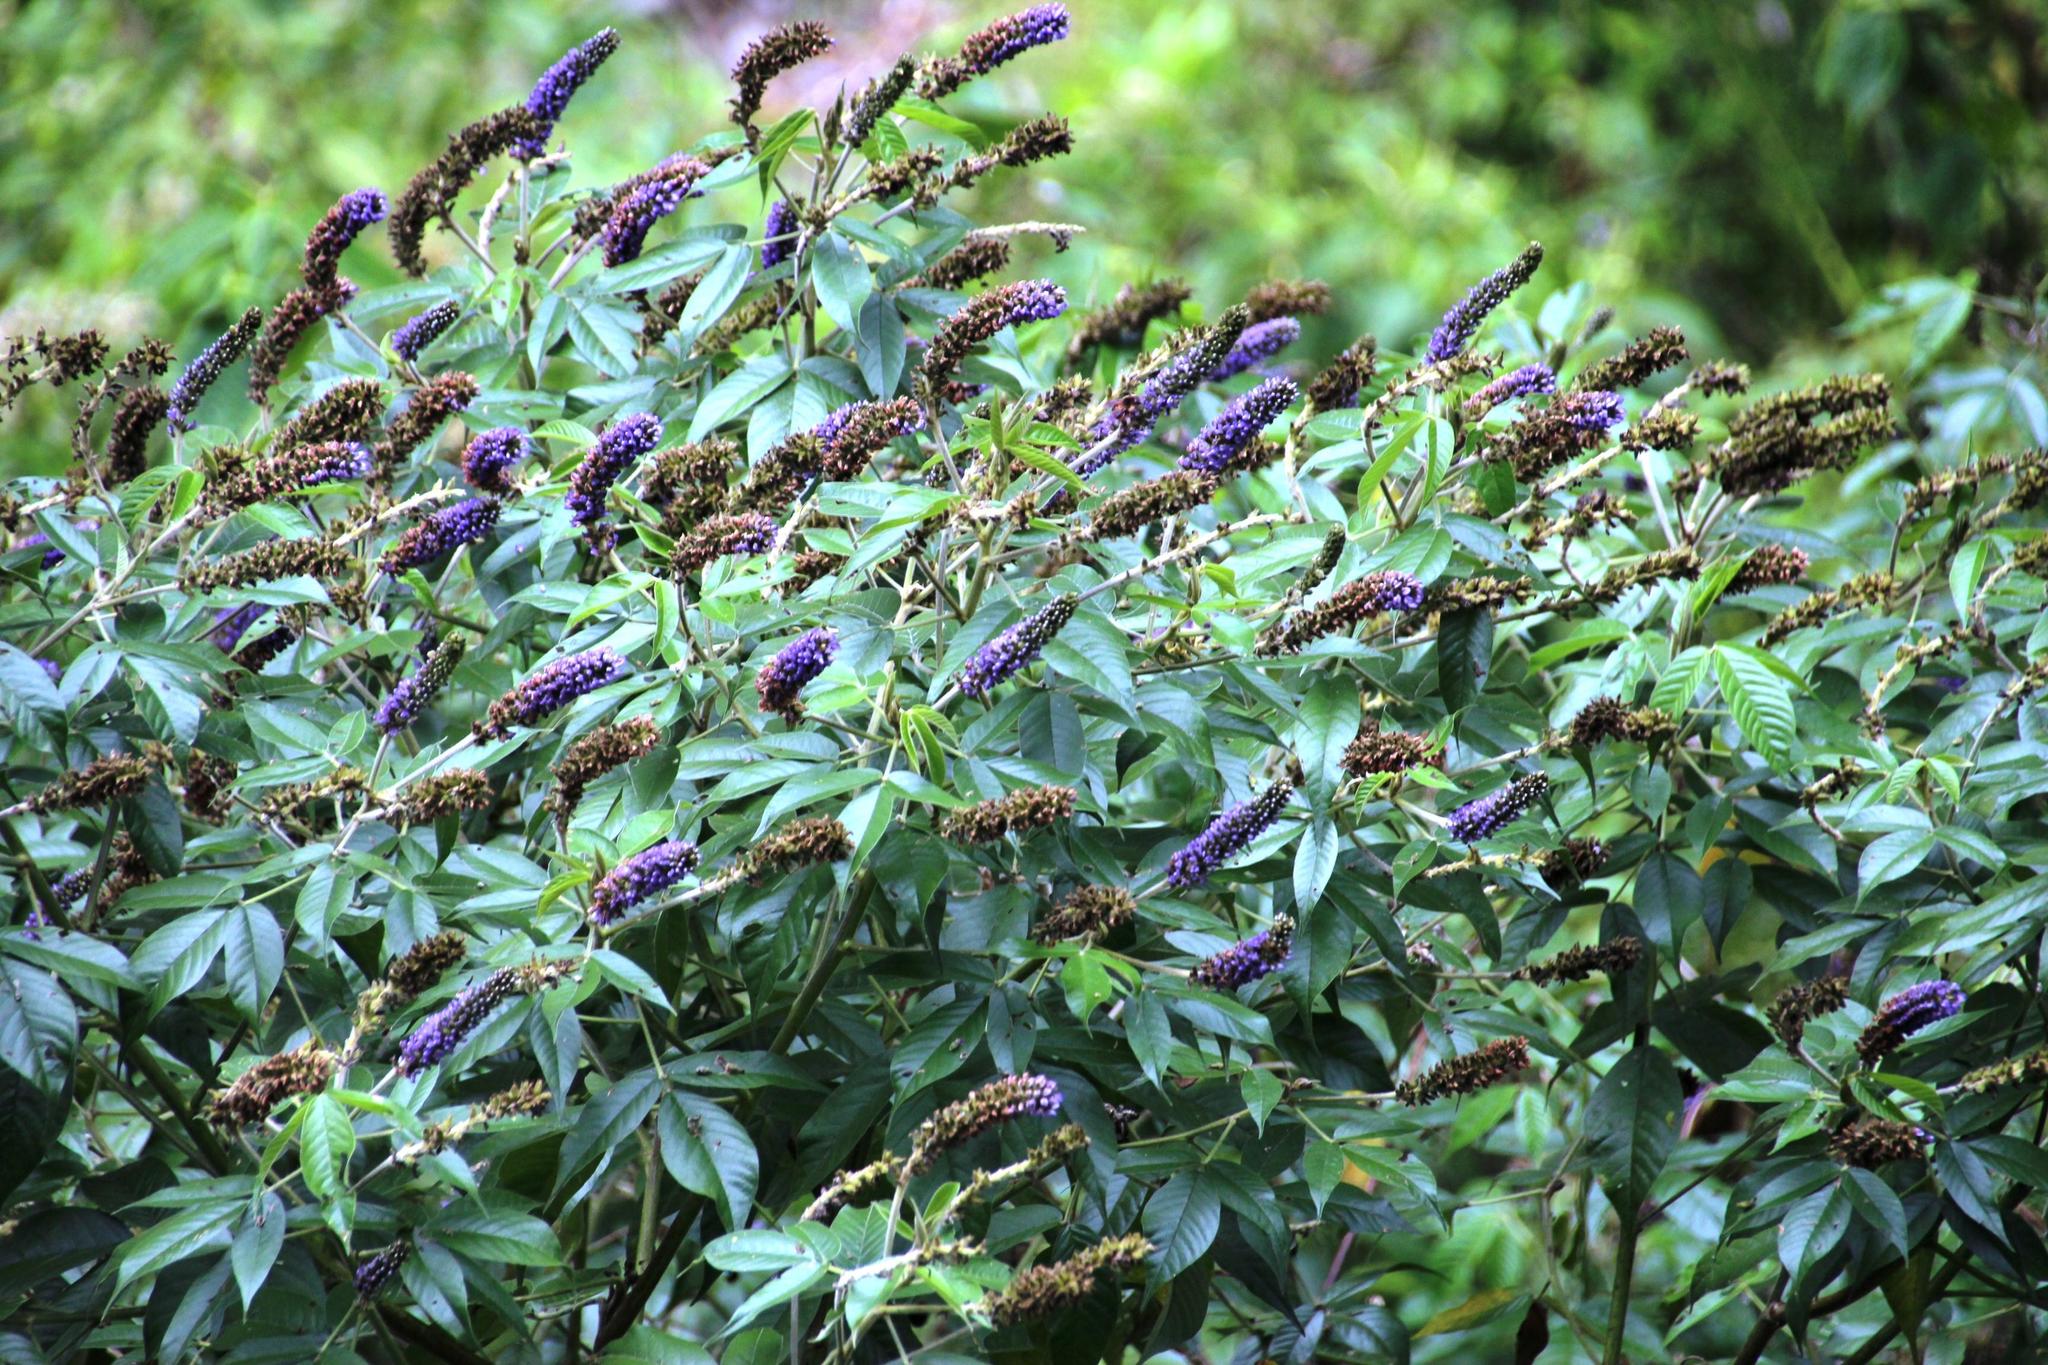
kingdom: Plantae
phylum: Tracheophyta
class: Magnoliopsida
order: Fabales
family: Fabaceae
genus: Psoralea
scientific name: Psoralea Otholobium pubescens
